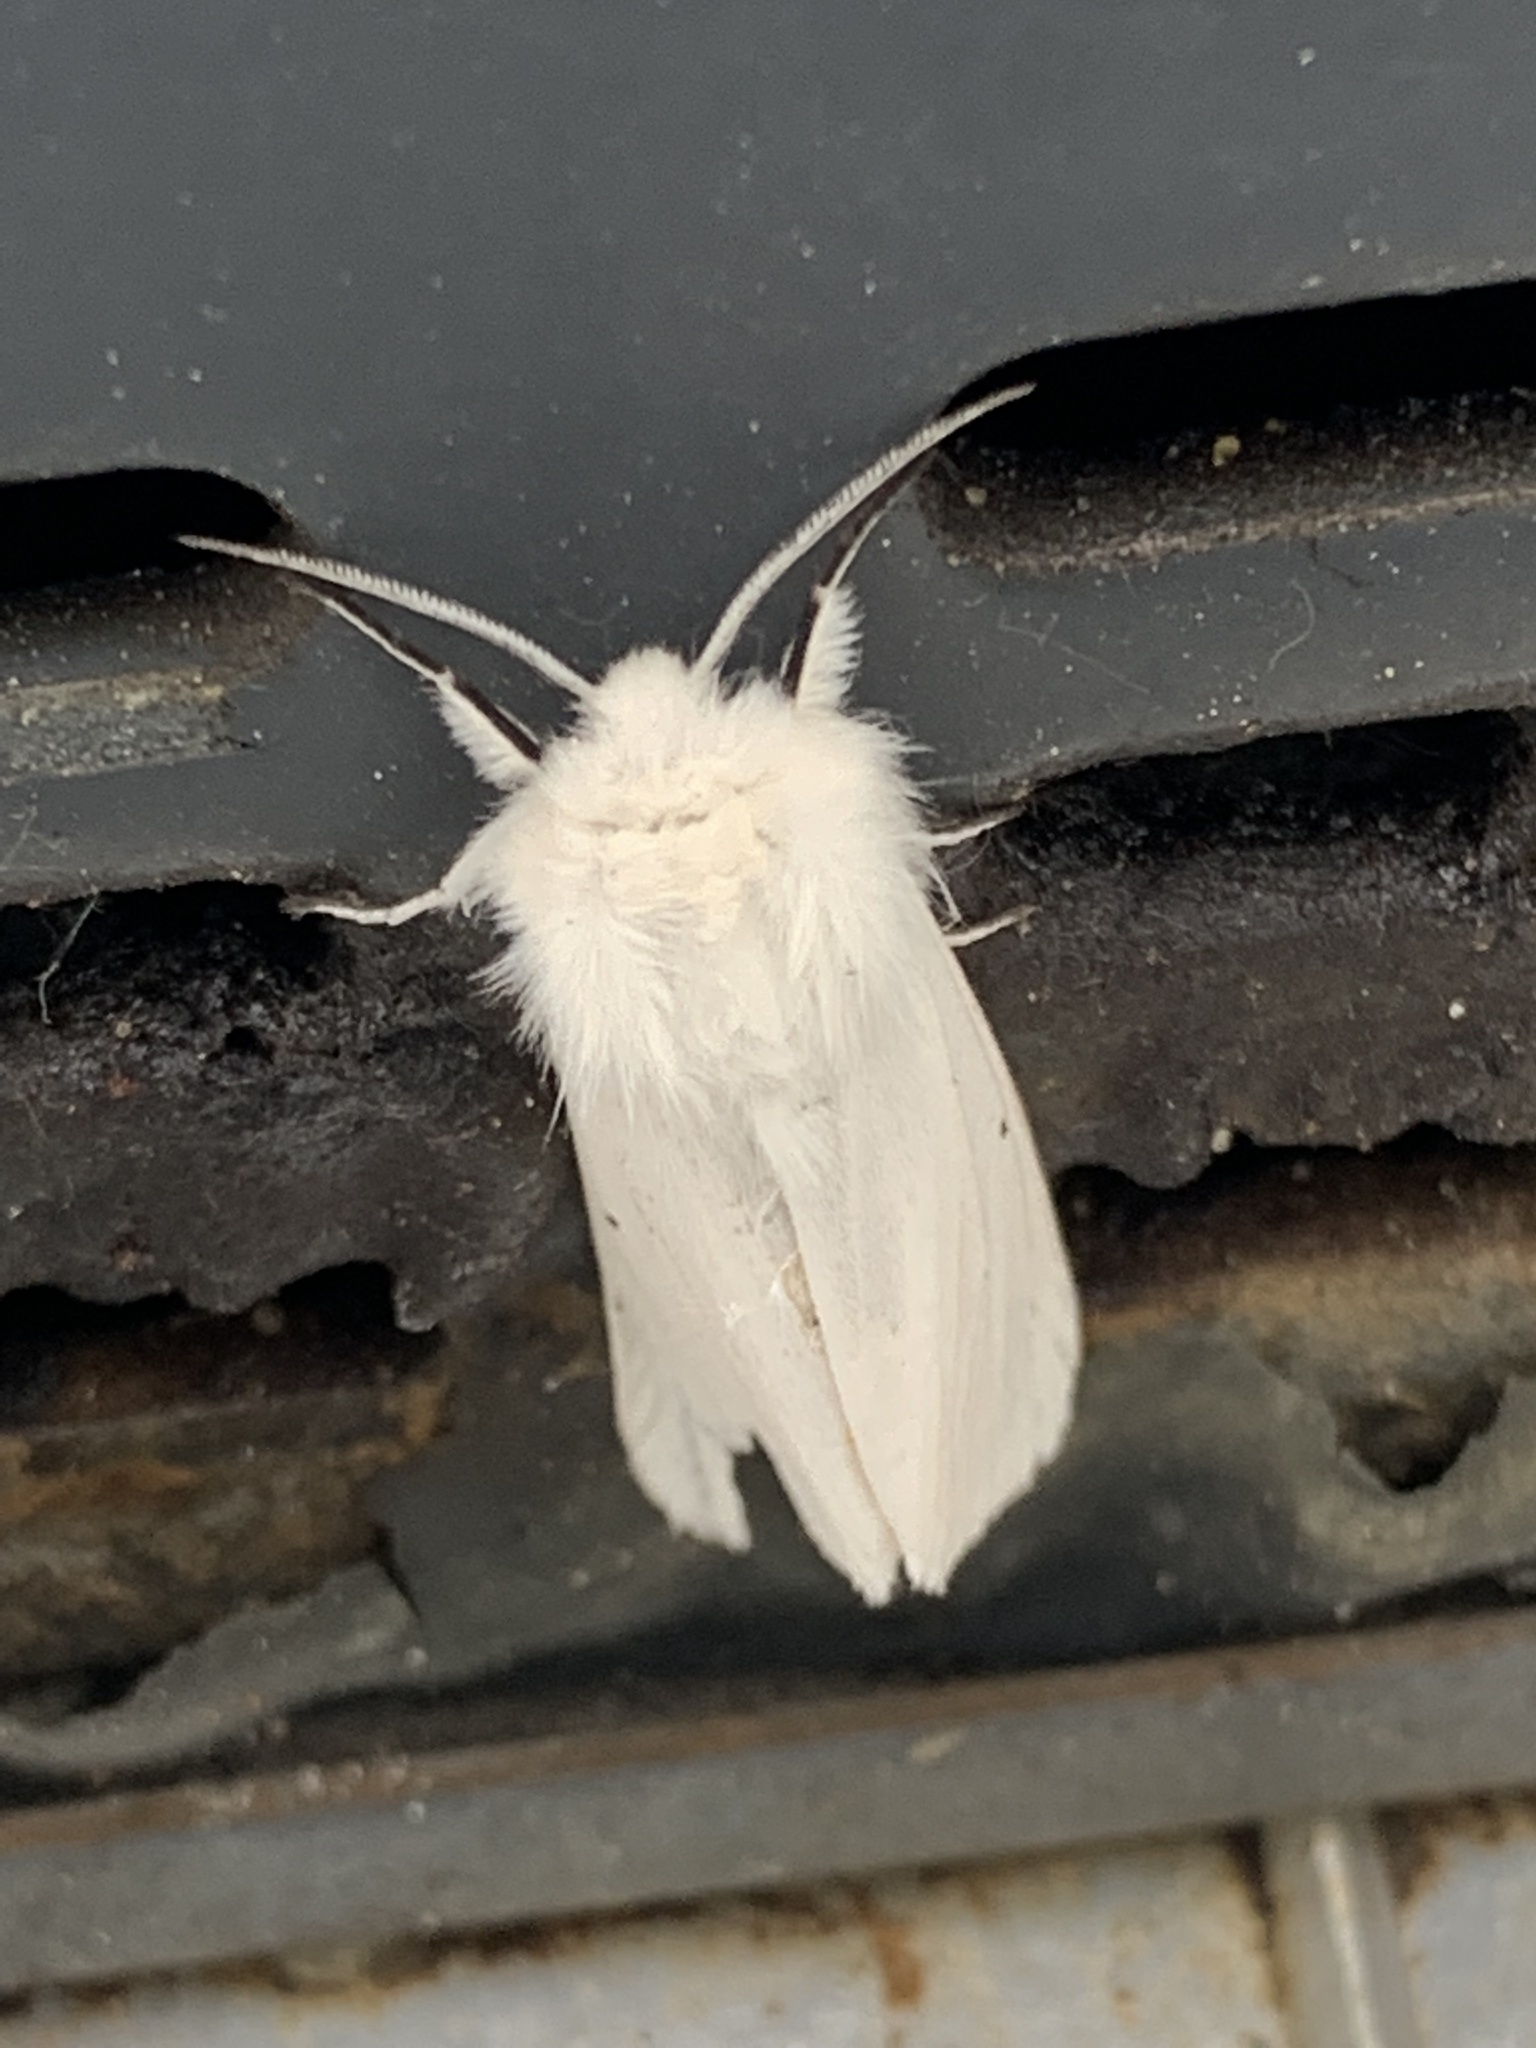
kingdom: Animalia
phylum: Arthropoda
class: Insecta
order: Lepidoptera
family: Erebidae
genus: Spilosoma
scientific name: Spilosoma lubricipeda
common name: White ermine
